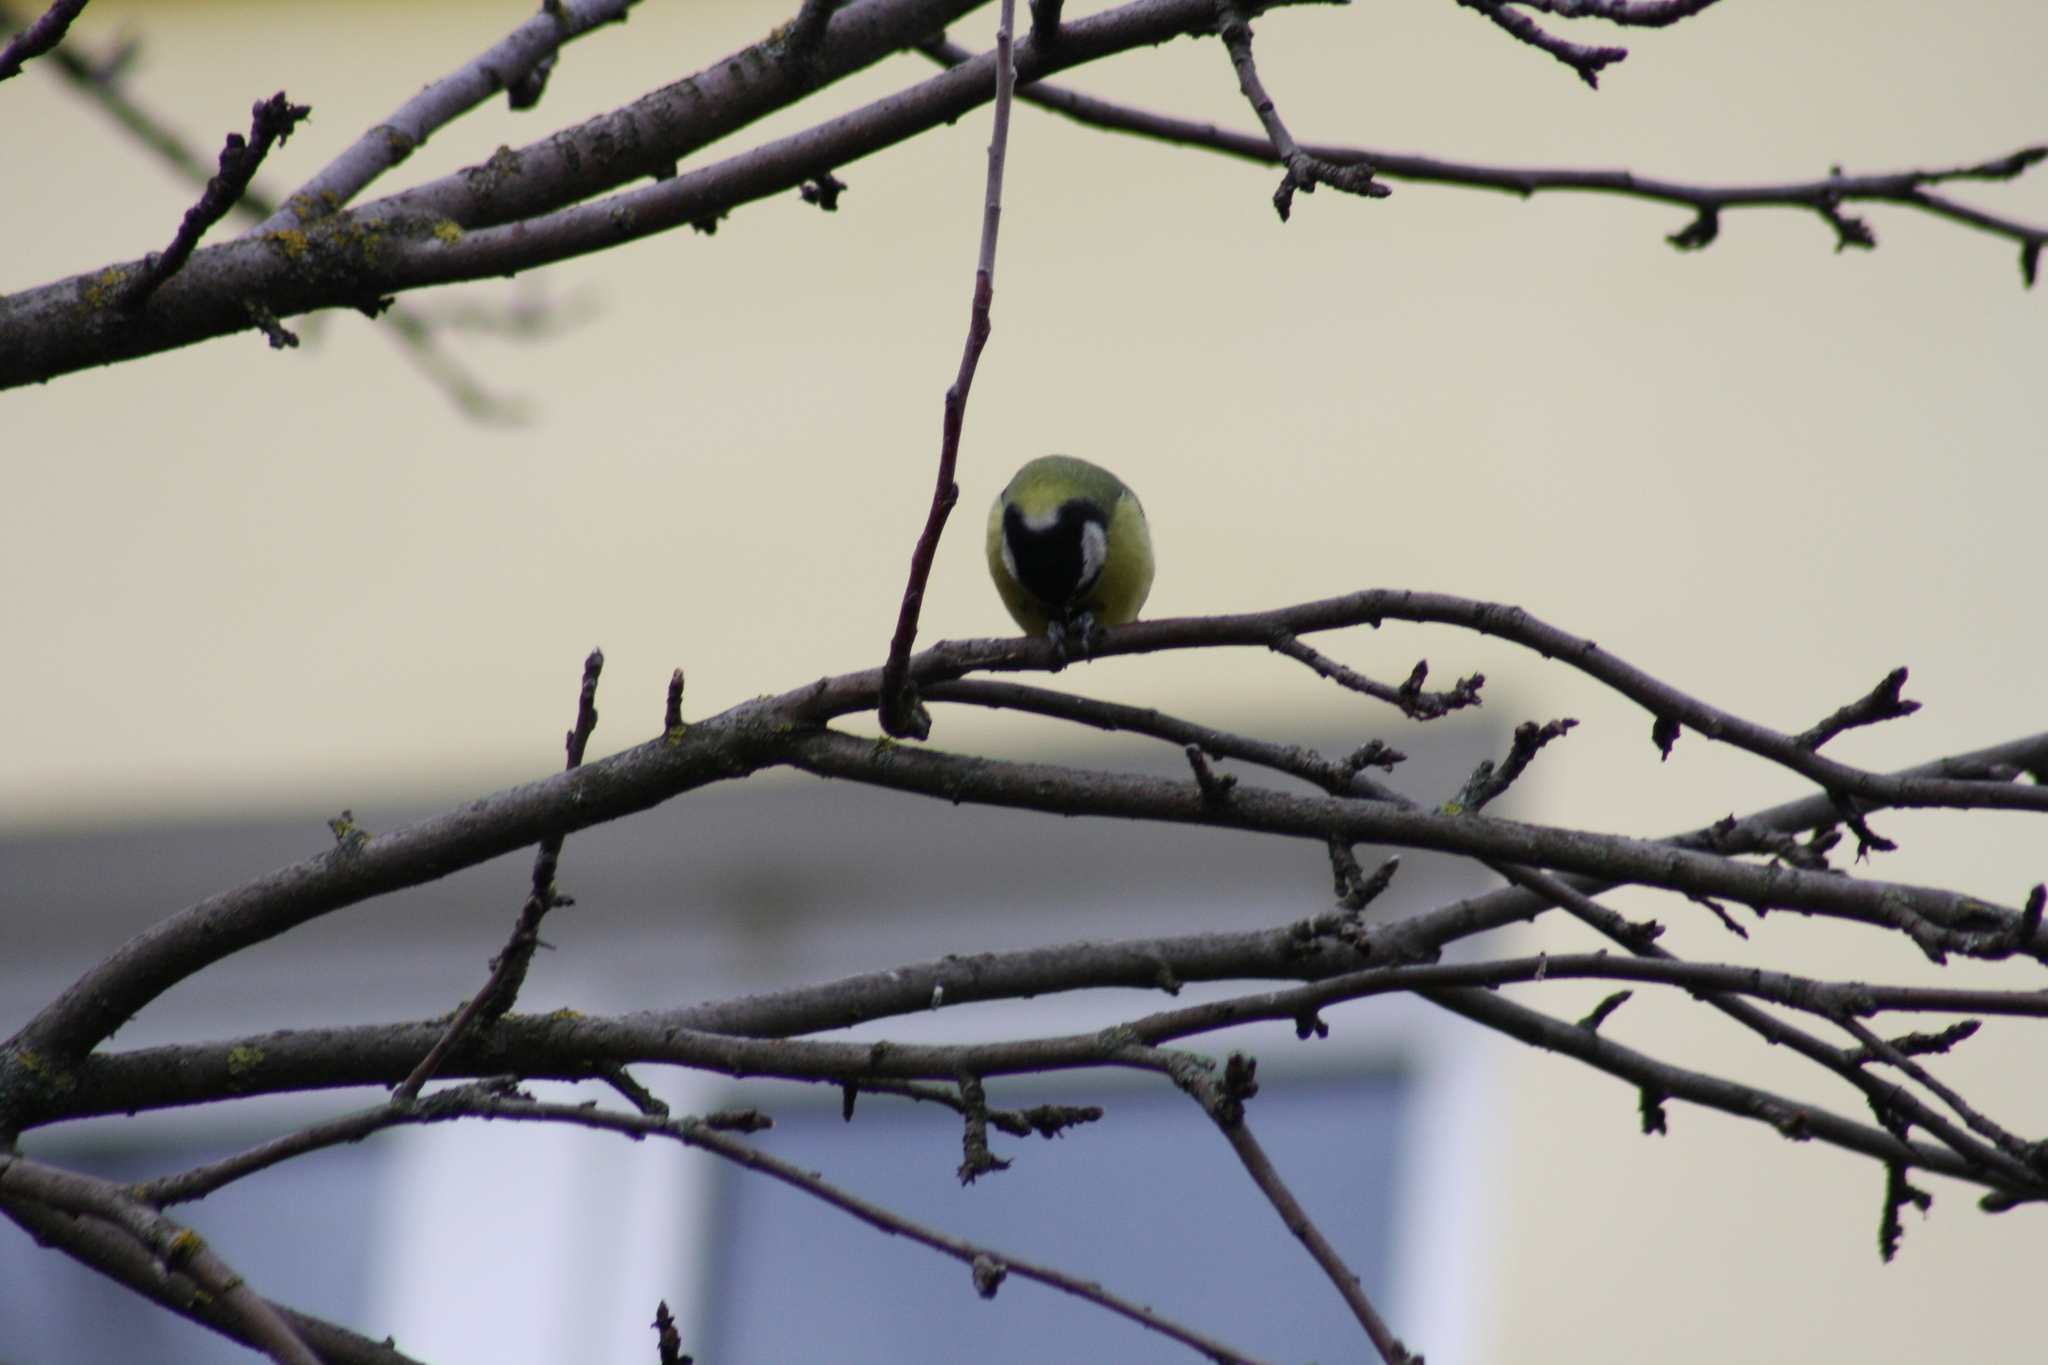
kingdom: Animalia
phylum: Chordata
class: Aves
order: Passeriformes
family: Paridae
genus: Parus
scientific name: Parus major
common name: Great tit
